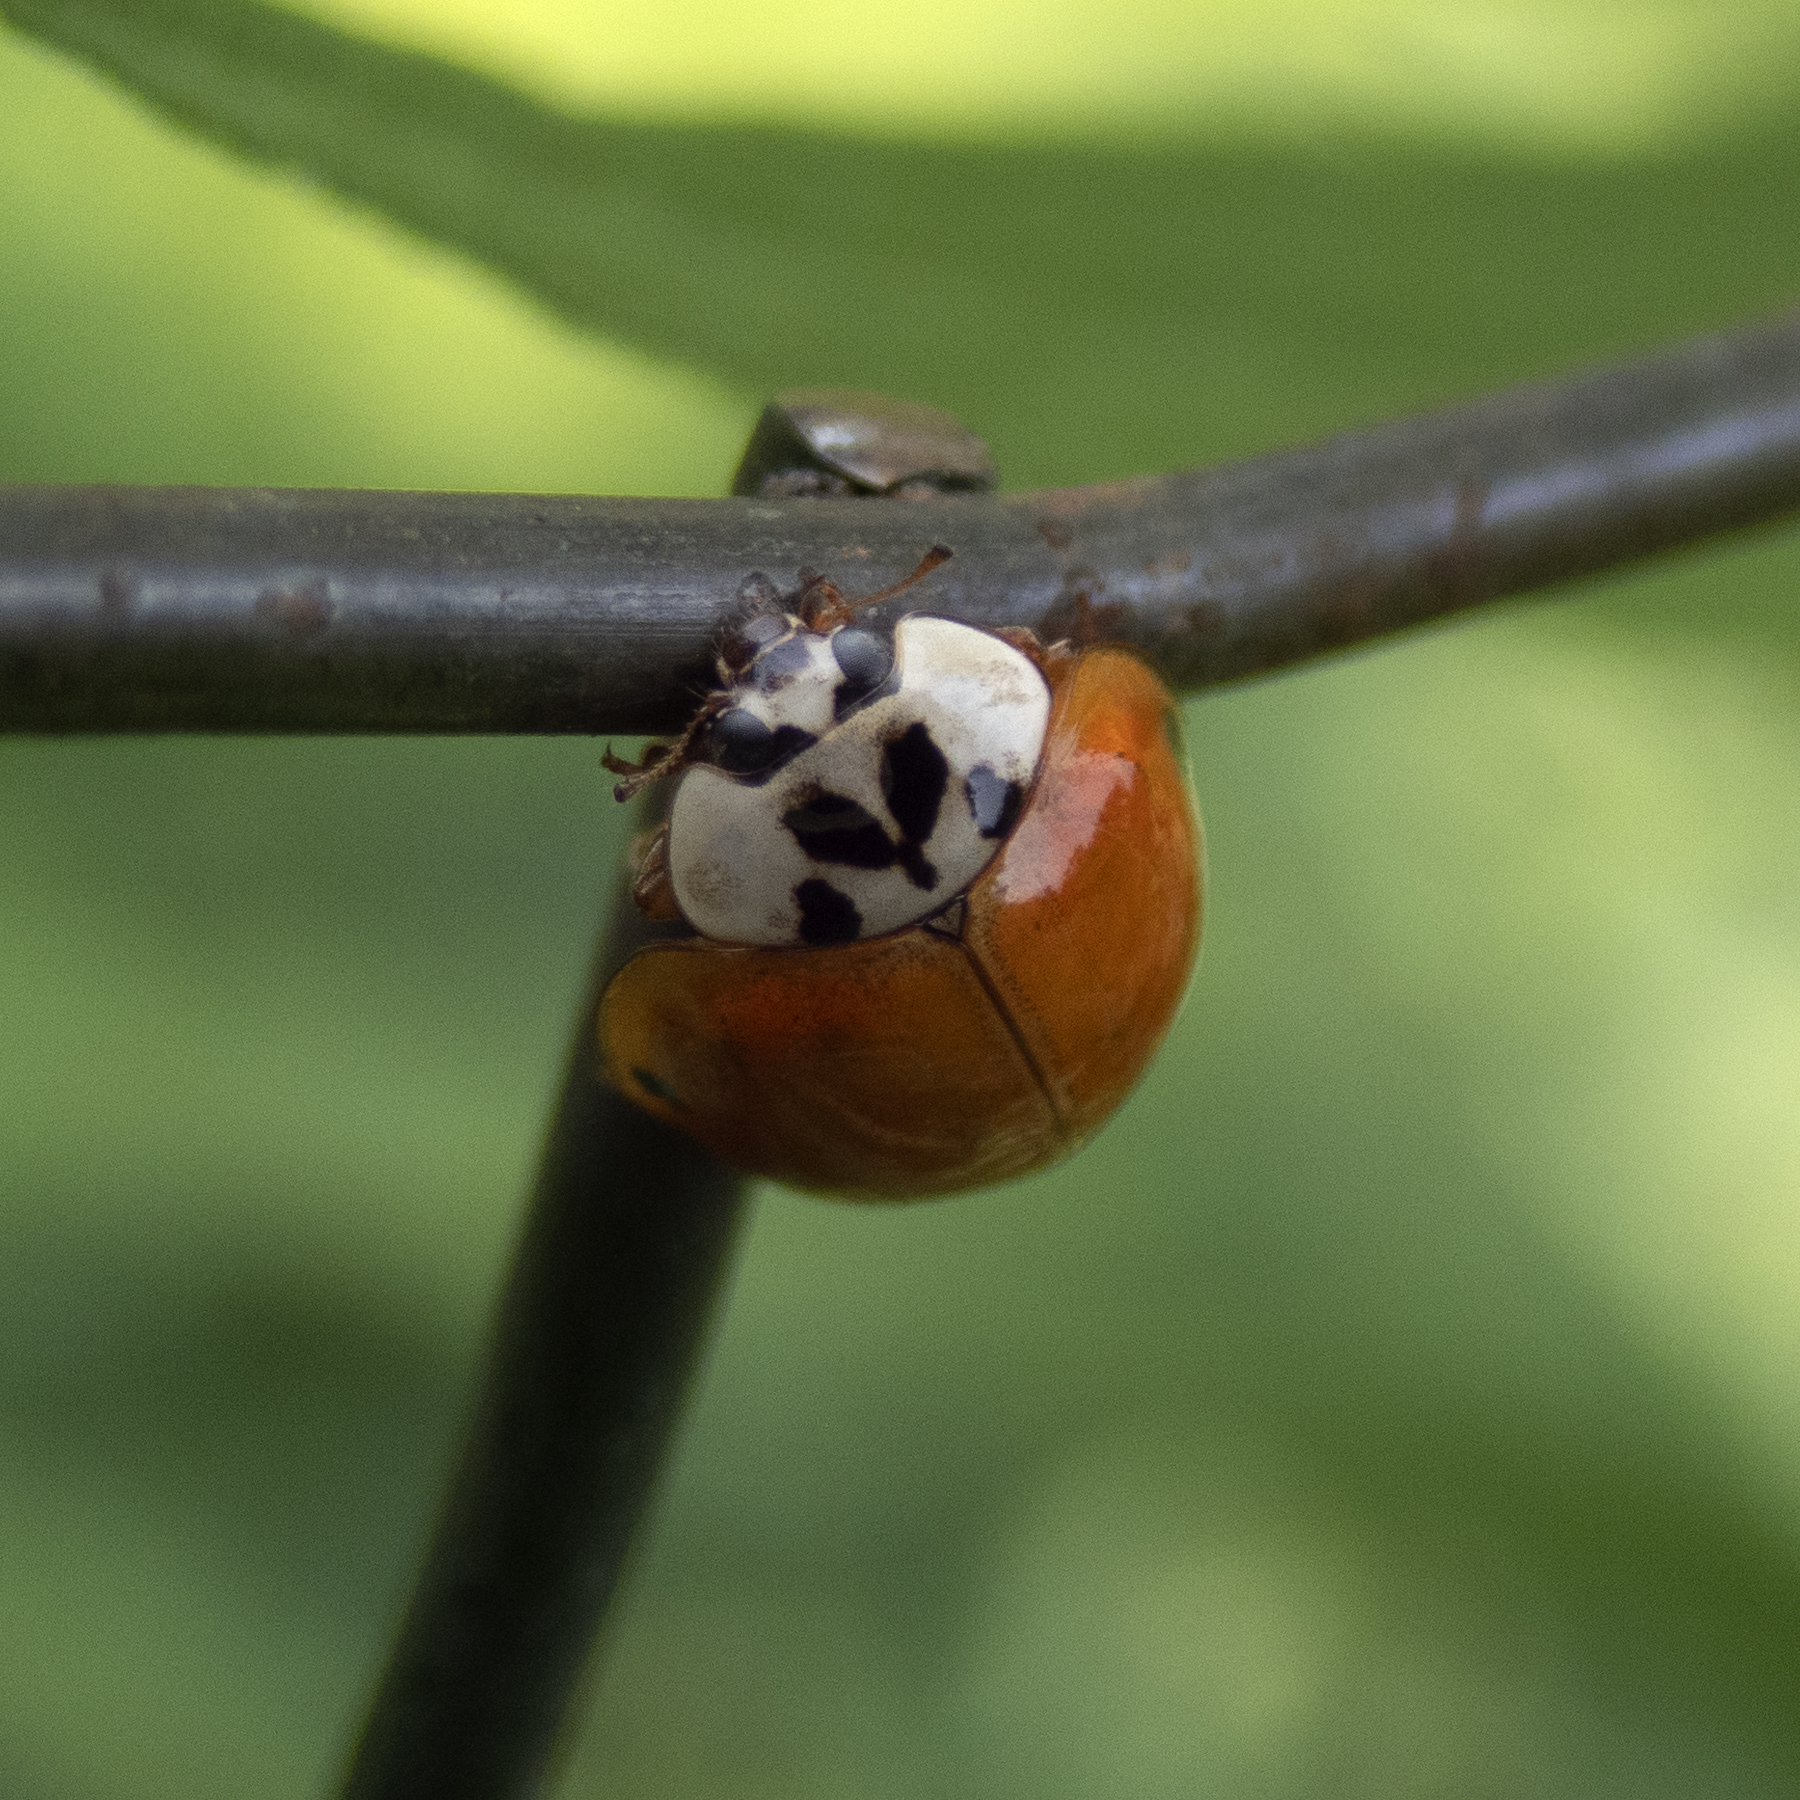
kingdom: Animalia
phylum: Arthropoda
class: Insecta
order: Coleoptera
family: Coccinellidae
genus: Harmonia
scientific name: Harmonia axyridis
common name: Harlequin ladybird
